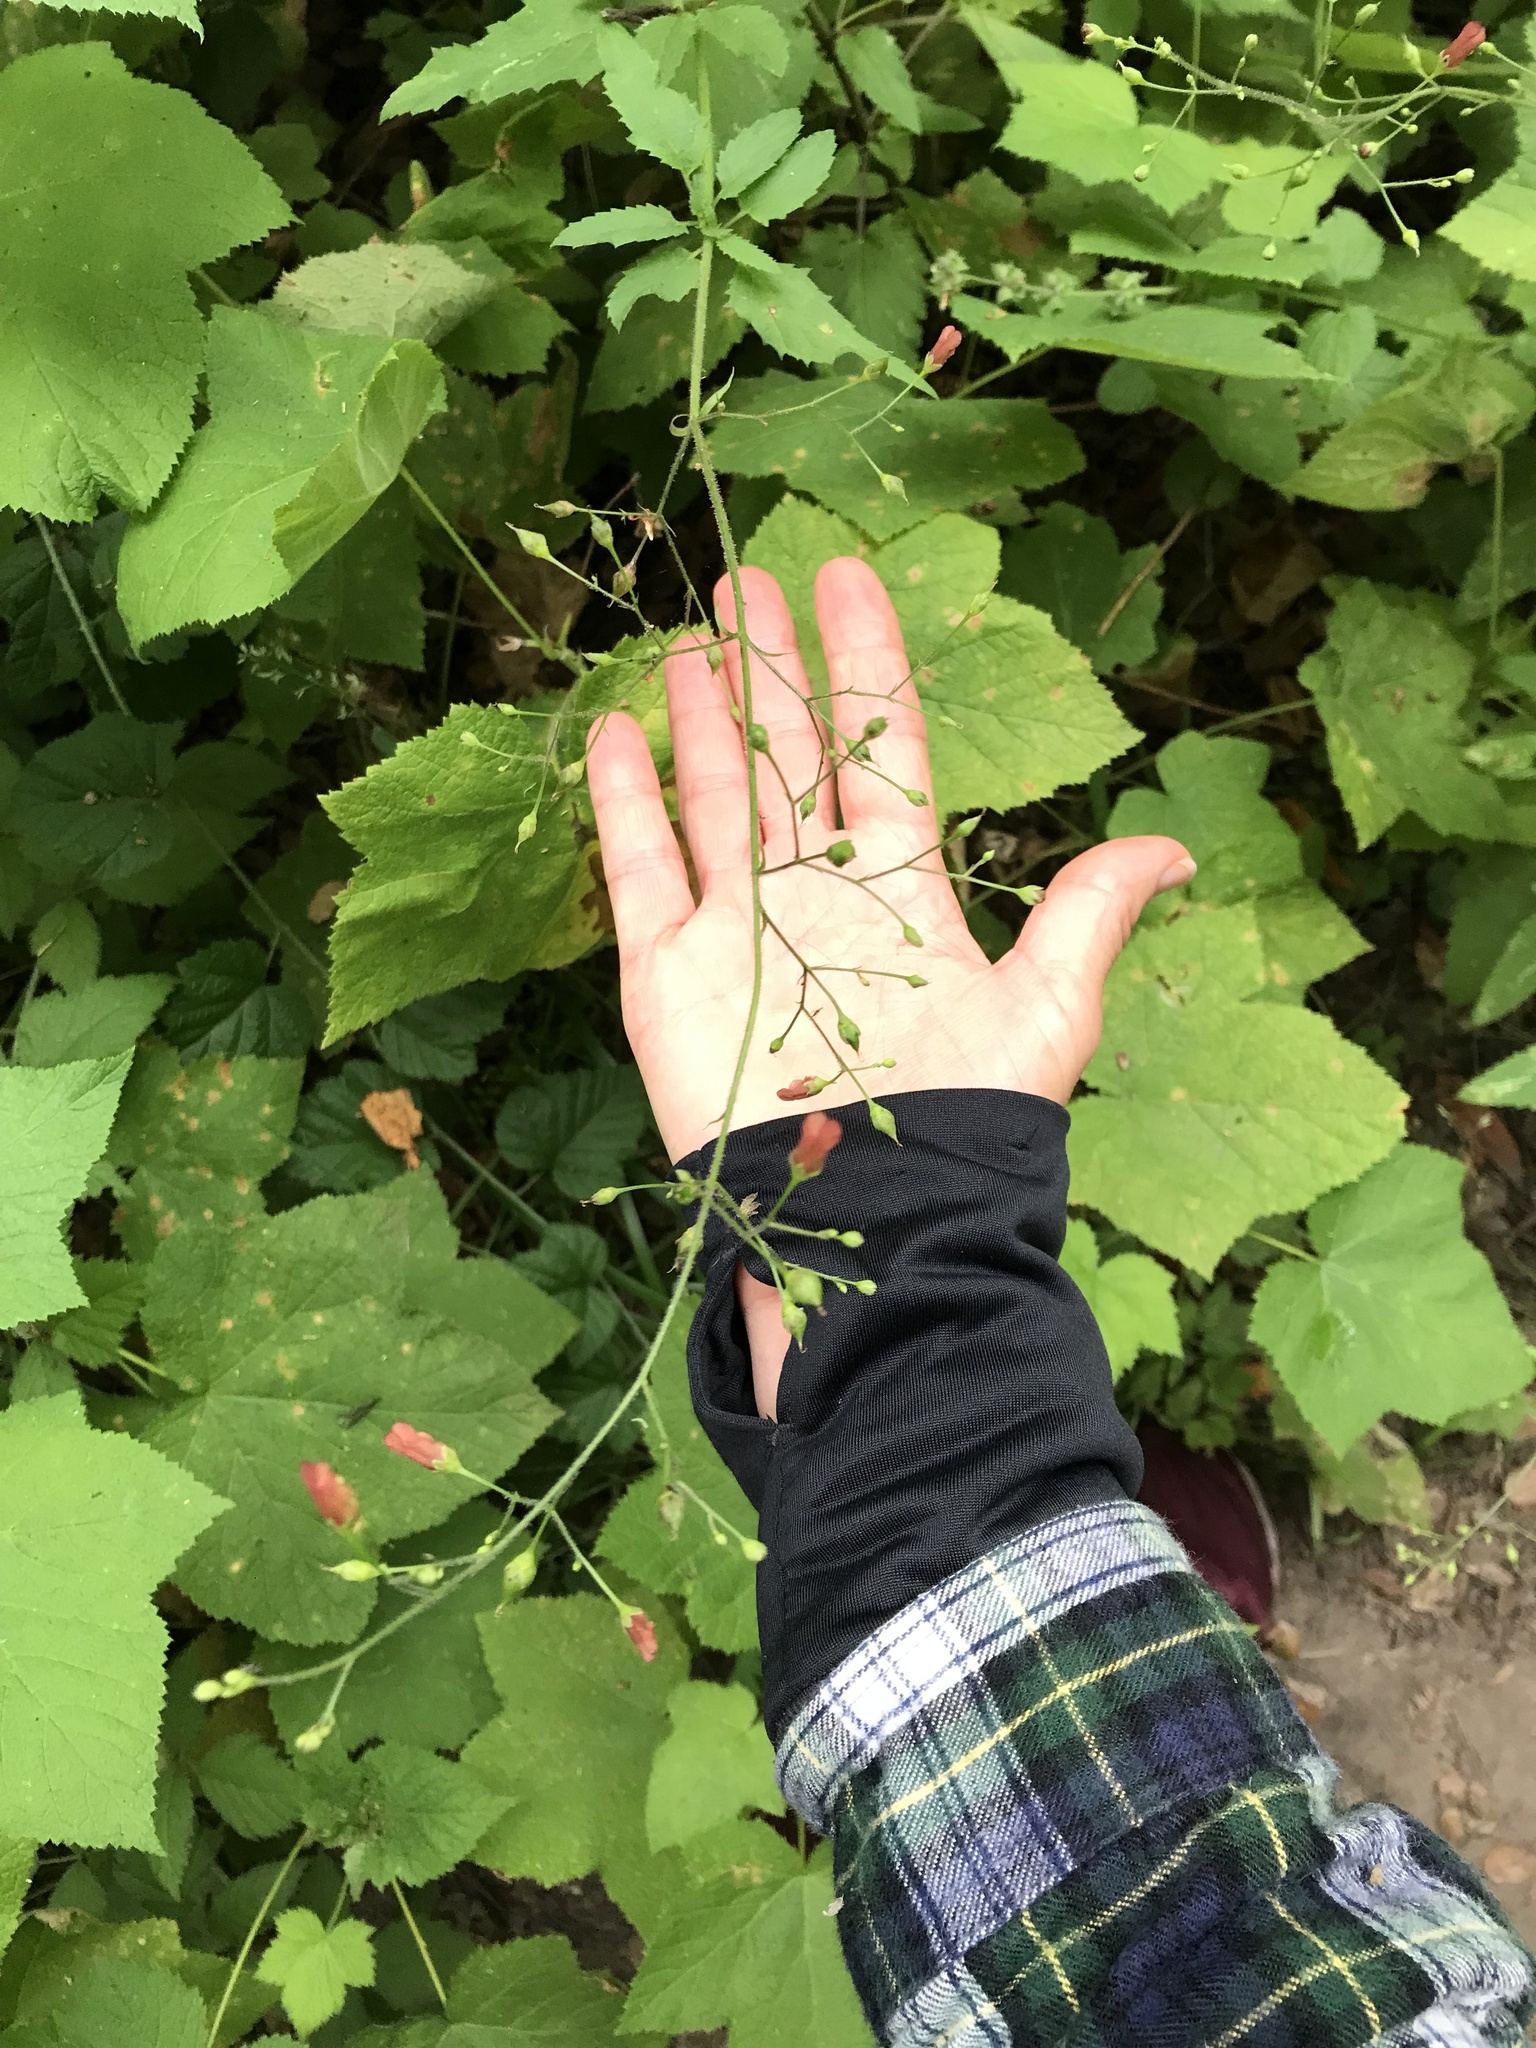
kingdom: Plantae
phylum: Tracheophyta
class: Magnoliopsida
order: Lamiales
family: Scrophulariaceae
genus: Scrophularia
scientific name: Scrophularia californica
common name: California figwort
